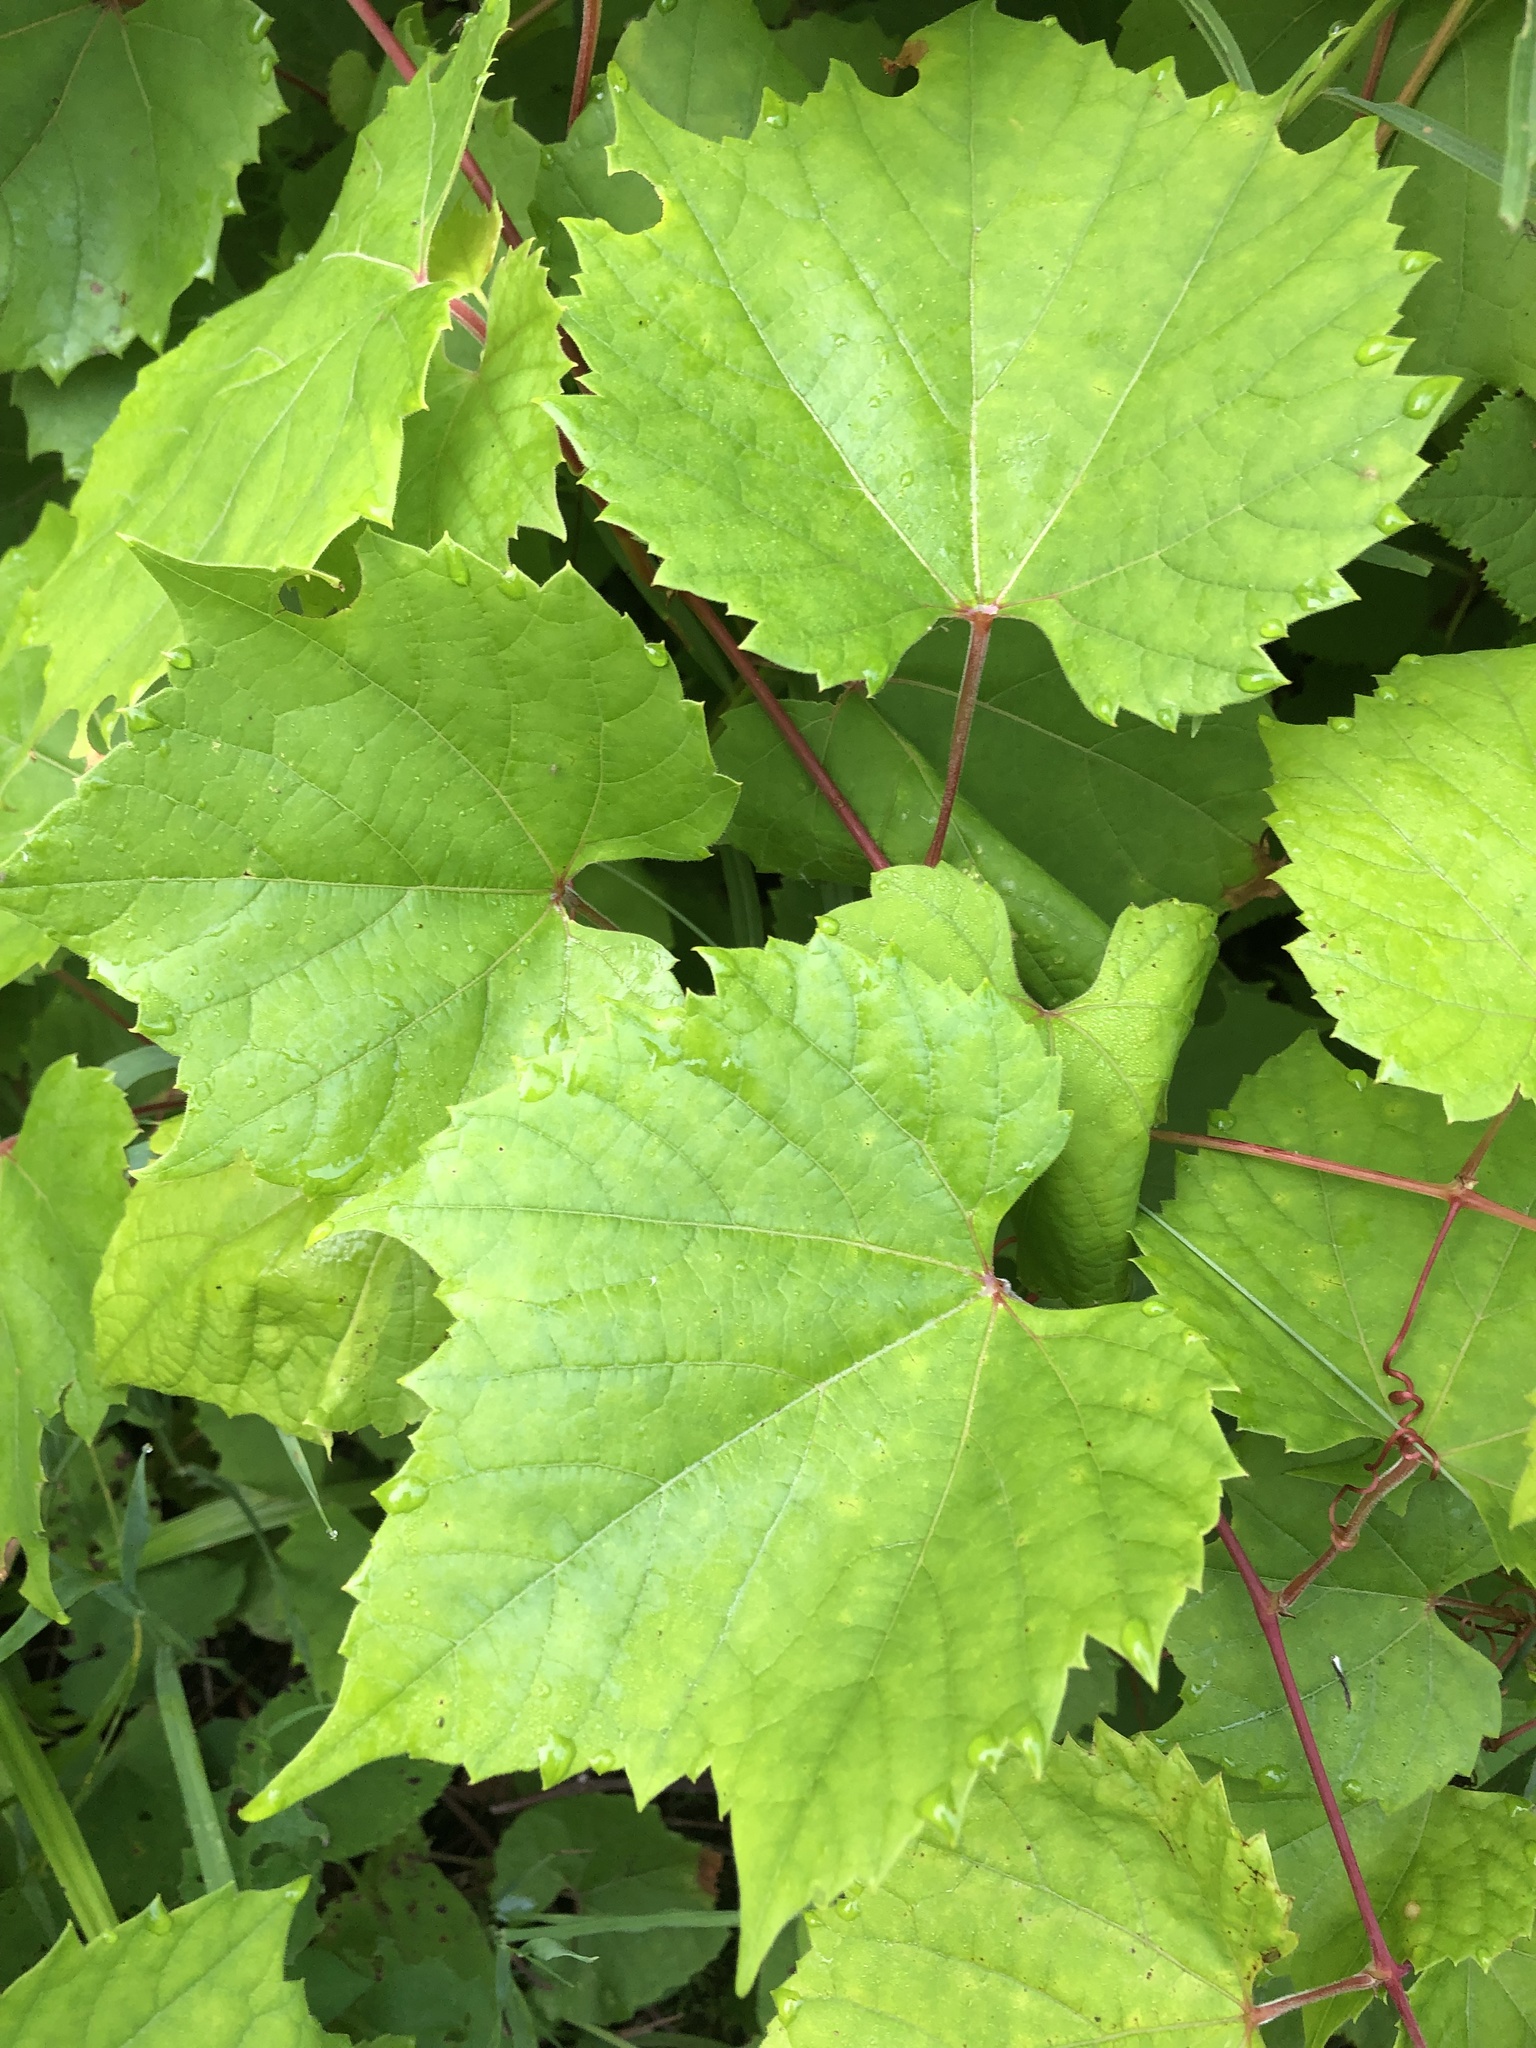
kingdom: Plantae
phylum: Tracheophyta
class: Magnoliopsida
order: Vitales
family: Vitaceae
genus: Vitis
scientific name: Vitis riparia
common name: Frost grape
